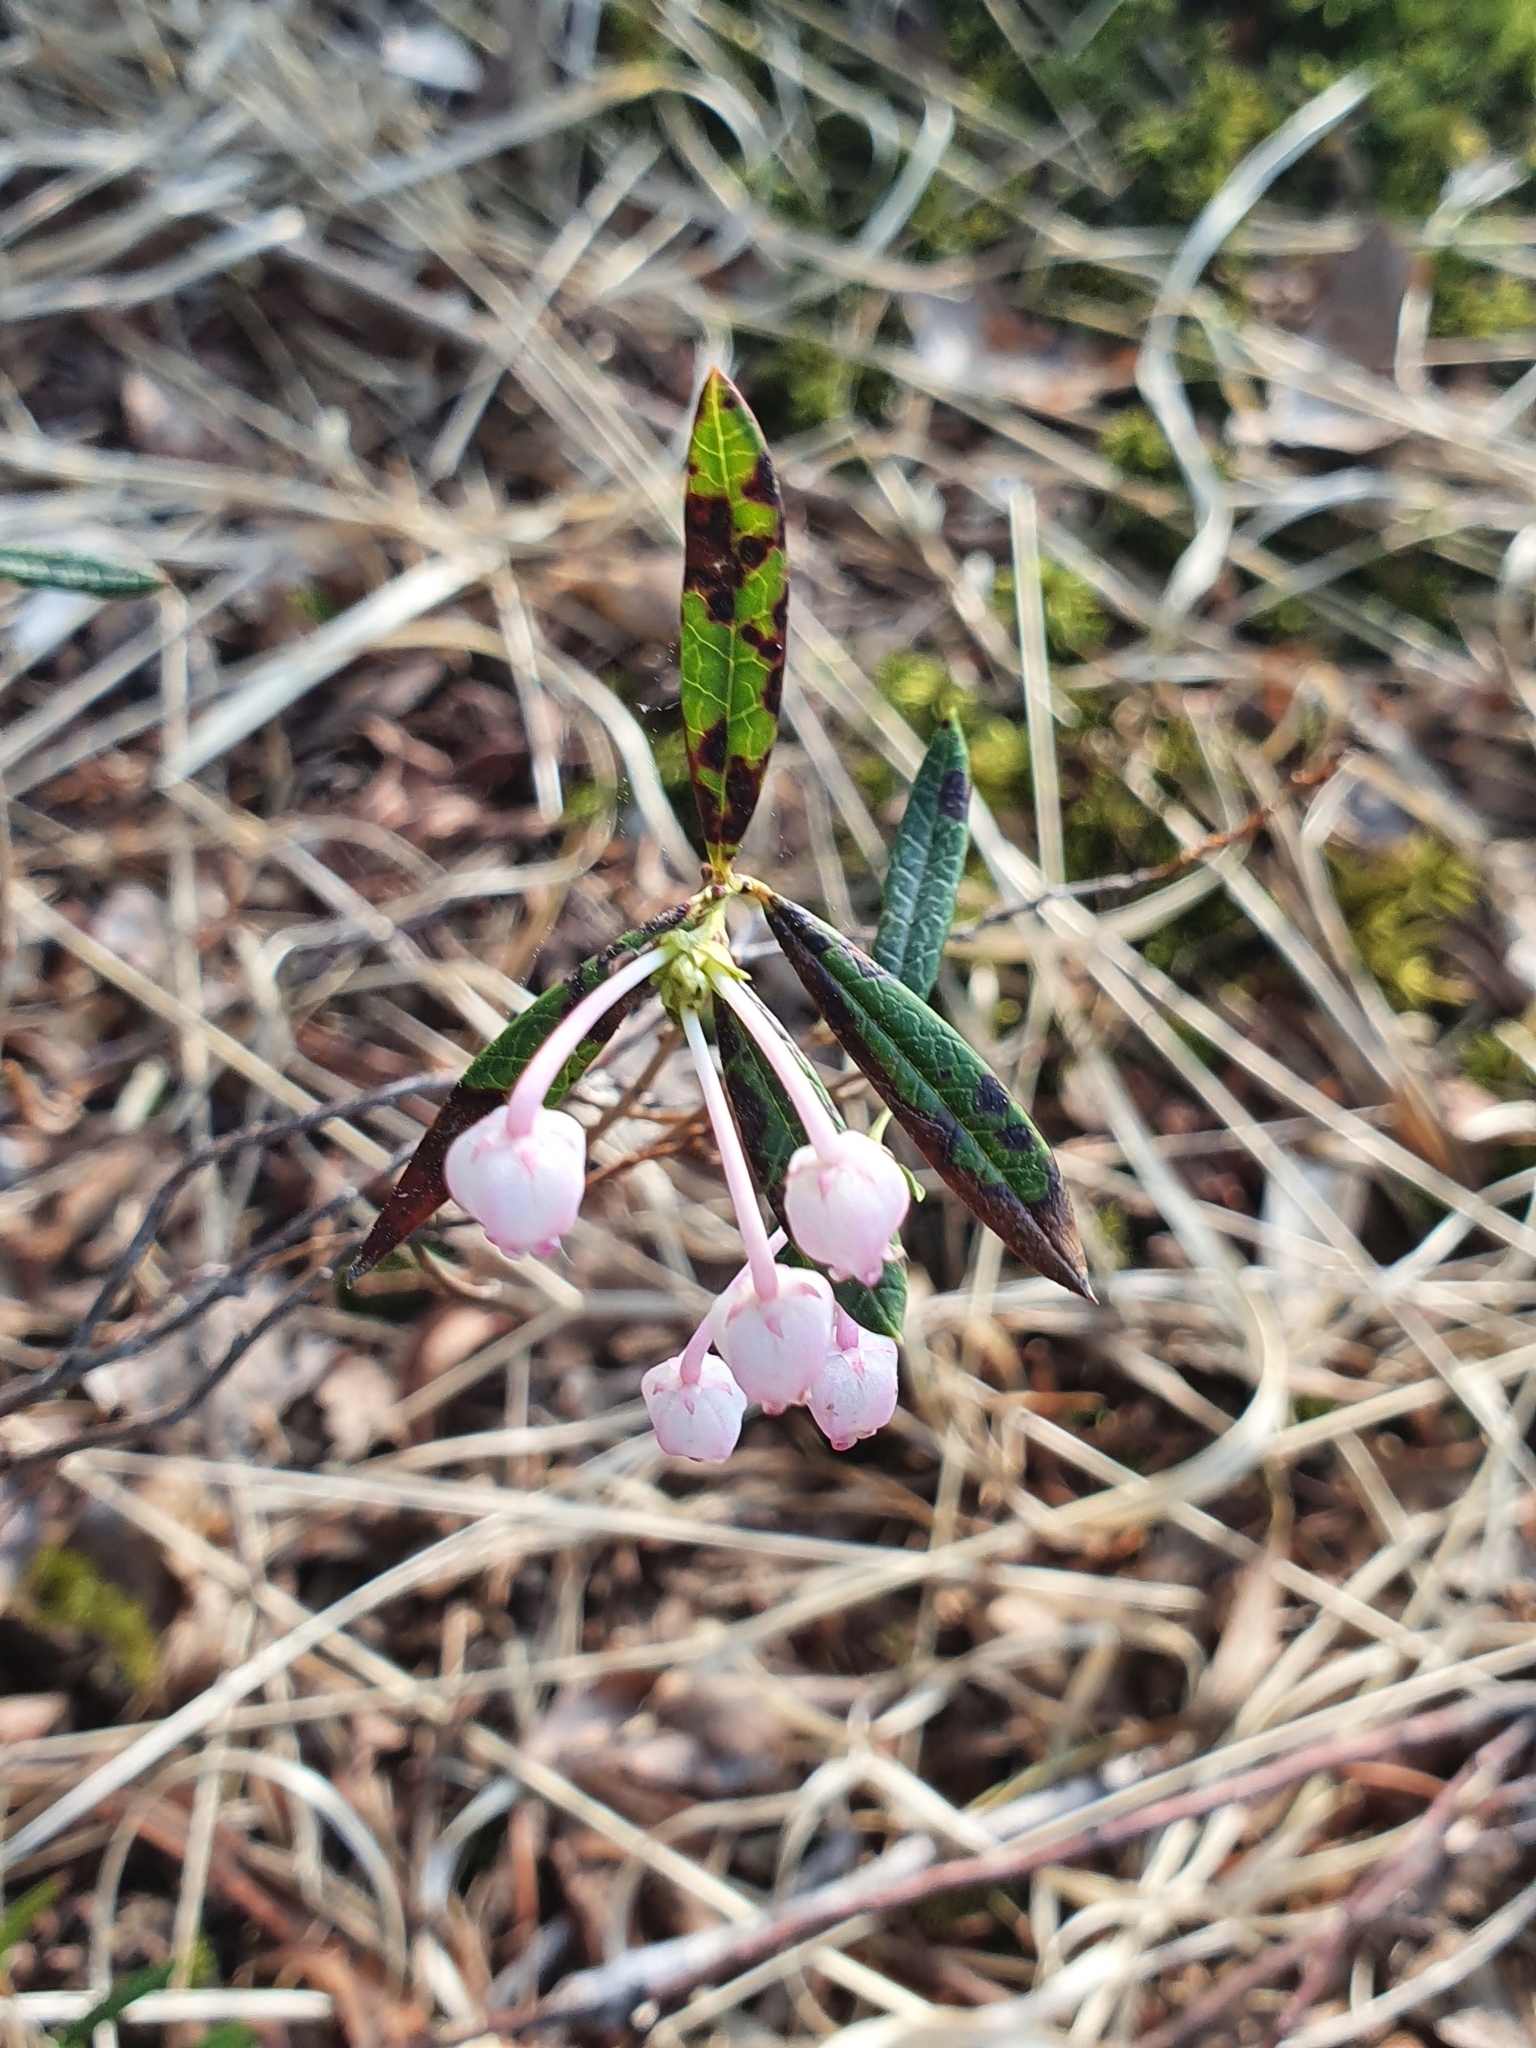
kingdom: Plantae
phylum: Tracheophyta
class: Magnoliopsida
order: Ericales
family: Ericaceae
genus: Andromeda
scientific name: Andromeda polifolia
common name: Bog-rosemary
